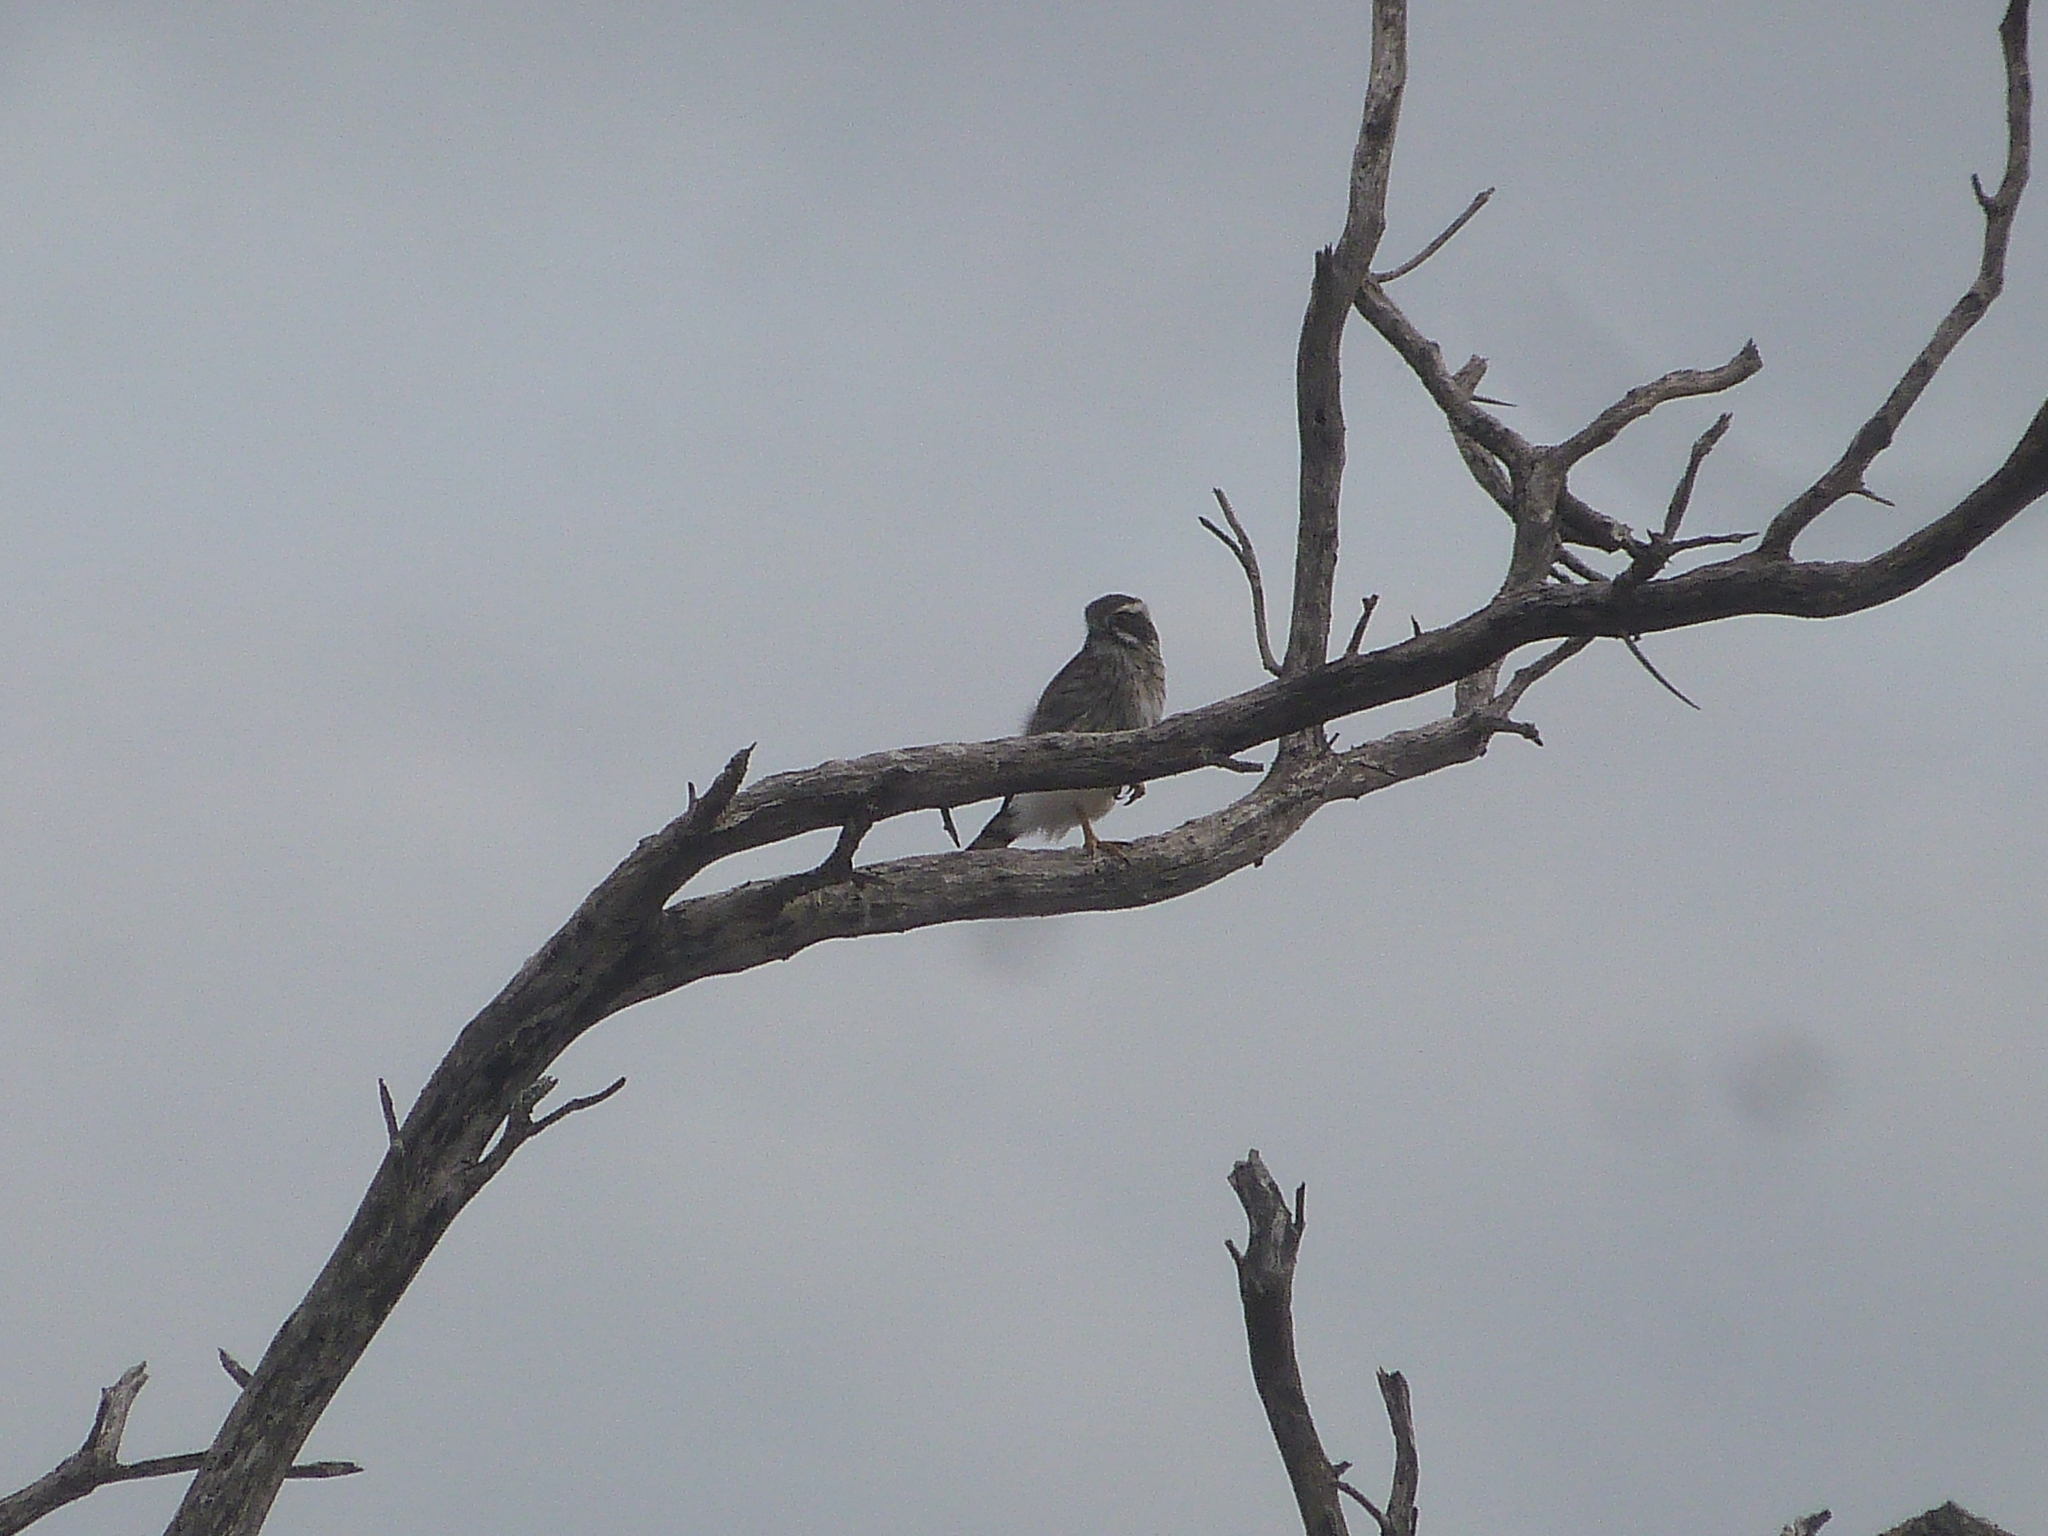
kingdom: Animalia
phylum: Chordata
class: Aves
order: Falconiformes
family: Falconidae
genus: Spiziapteryx
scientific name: Spiziapteryx circumcincta
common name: Spot-winged falconet
